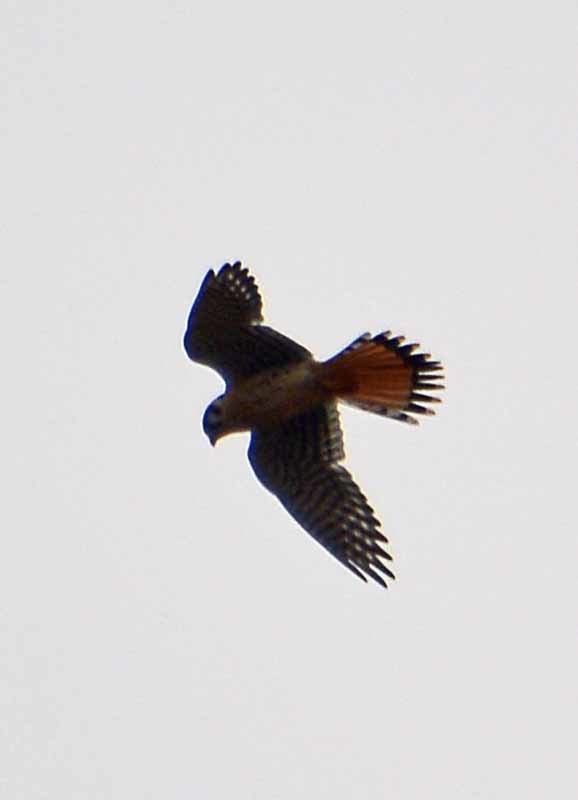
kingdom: Animalia
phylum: Chordata
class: Aves
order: Falconiformes
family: Falconidae
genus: Falco
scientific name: Falco sparverius
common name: American kestrel
